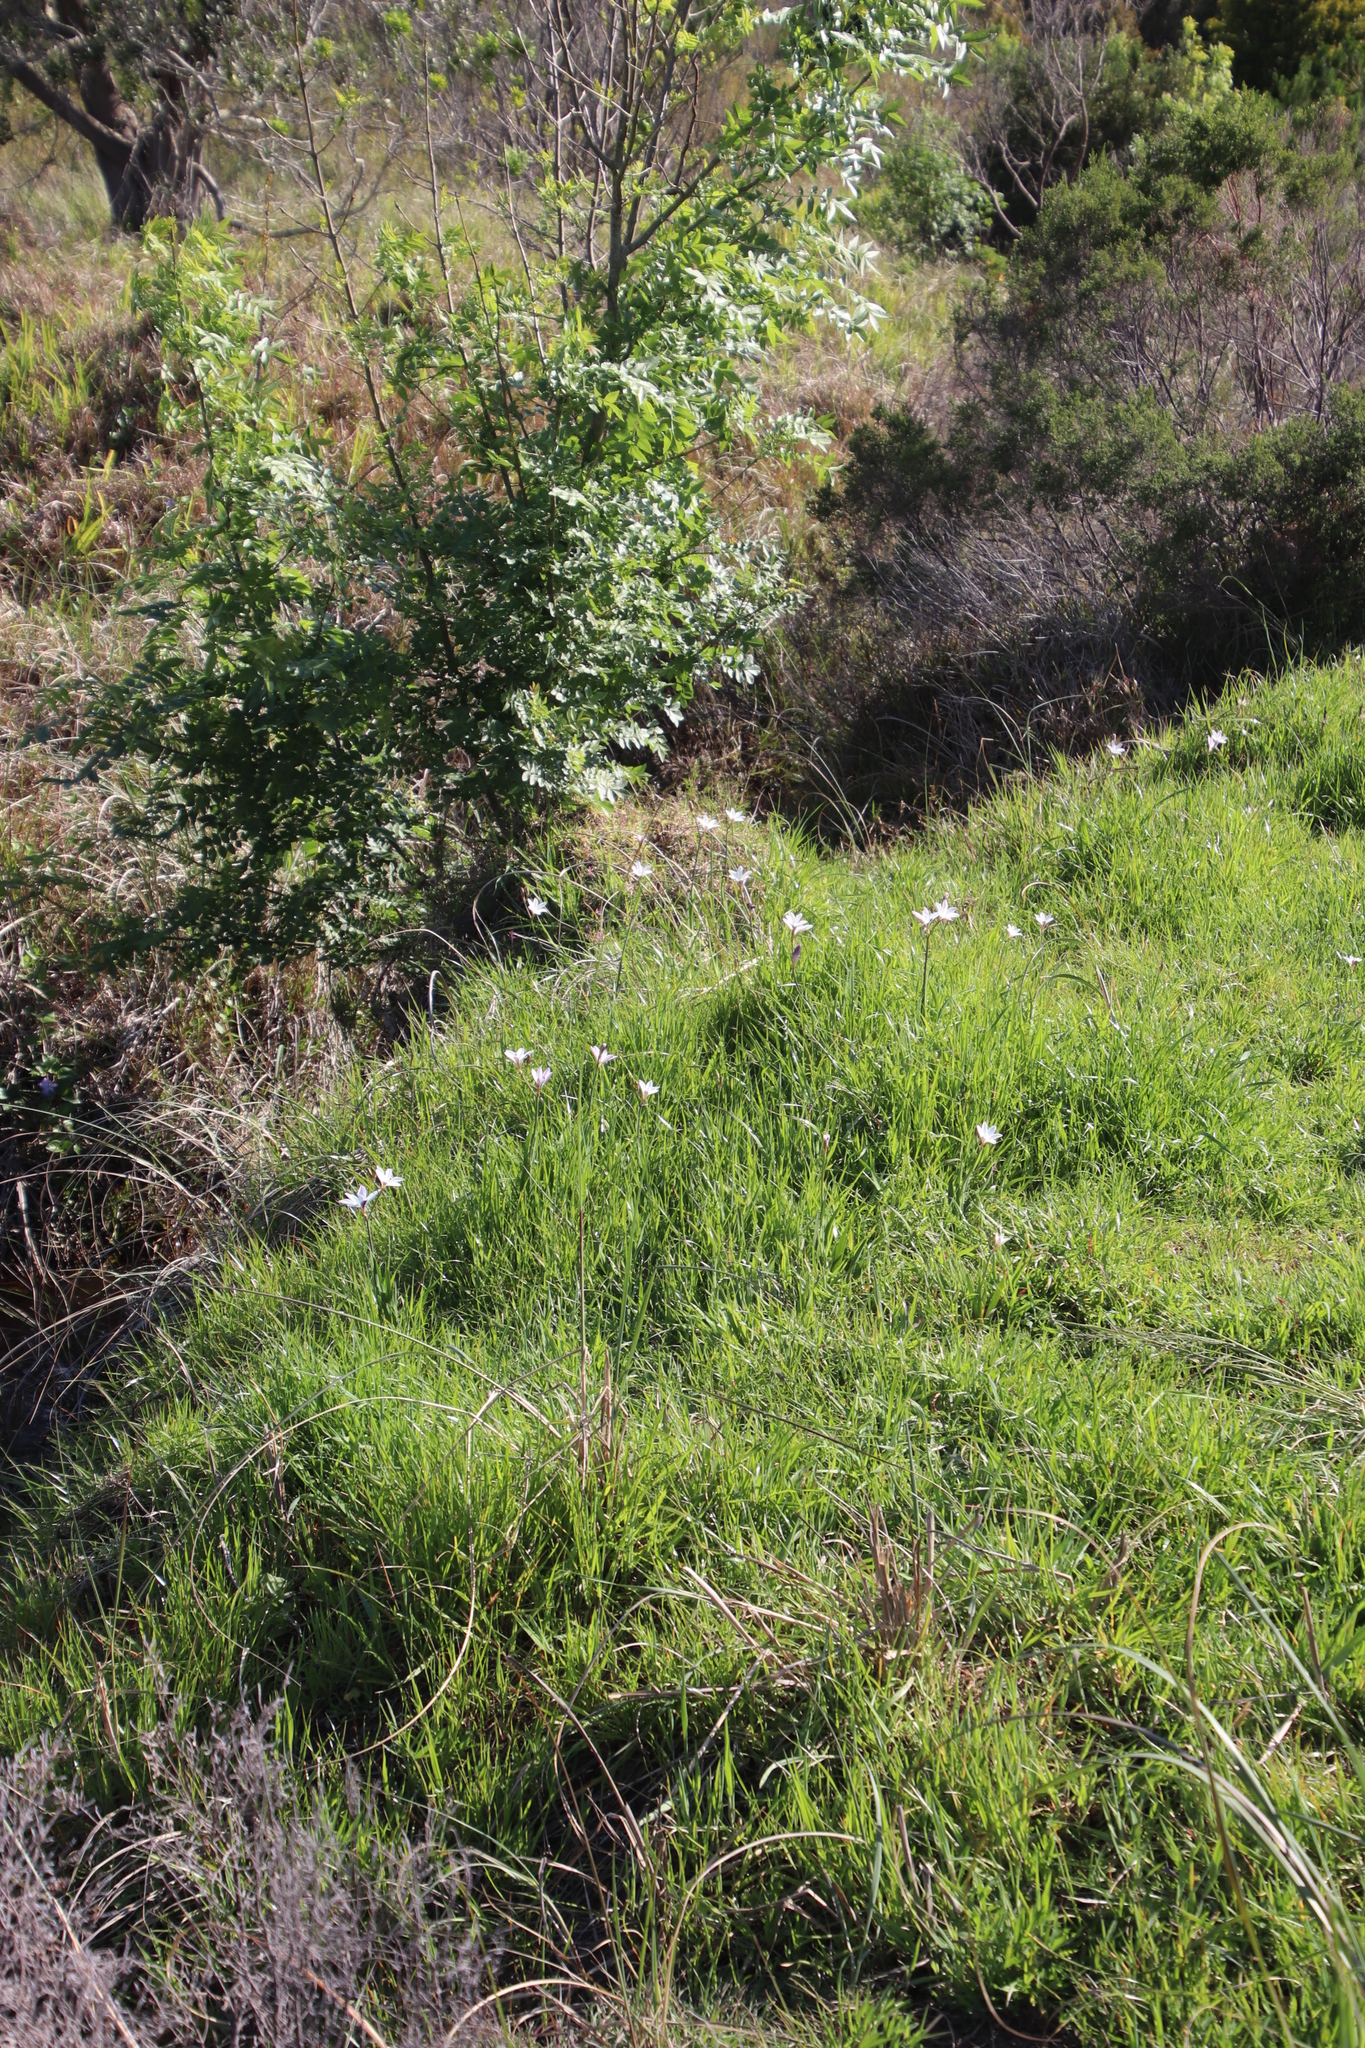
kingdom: Plantae
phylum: Tracheophyta
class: Liliopsida
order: Asparagales
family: Iridaceae
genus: Sparaxis
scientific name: Sparaxis bulbifera
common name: Harlequin-flower
